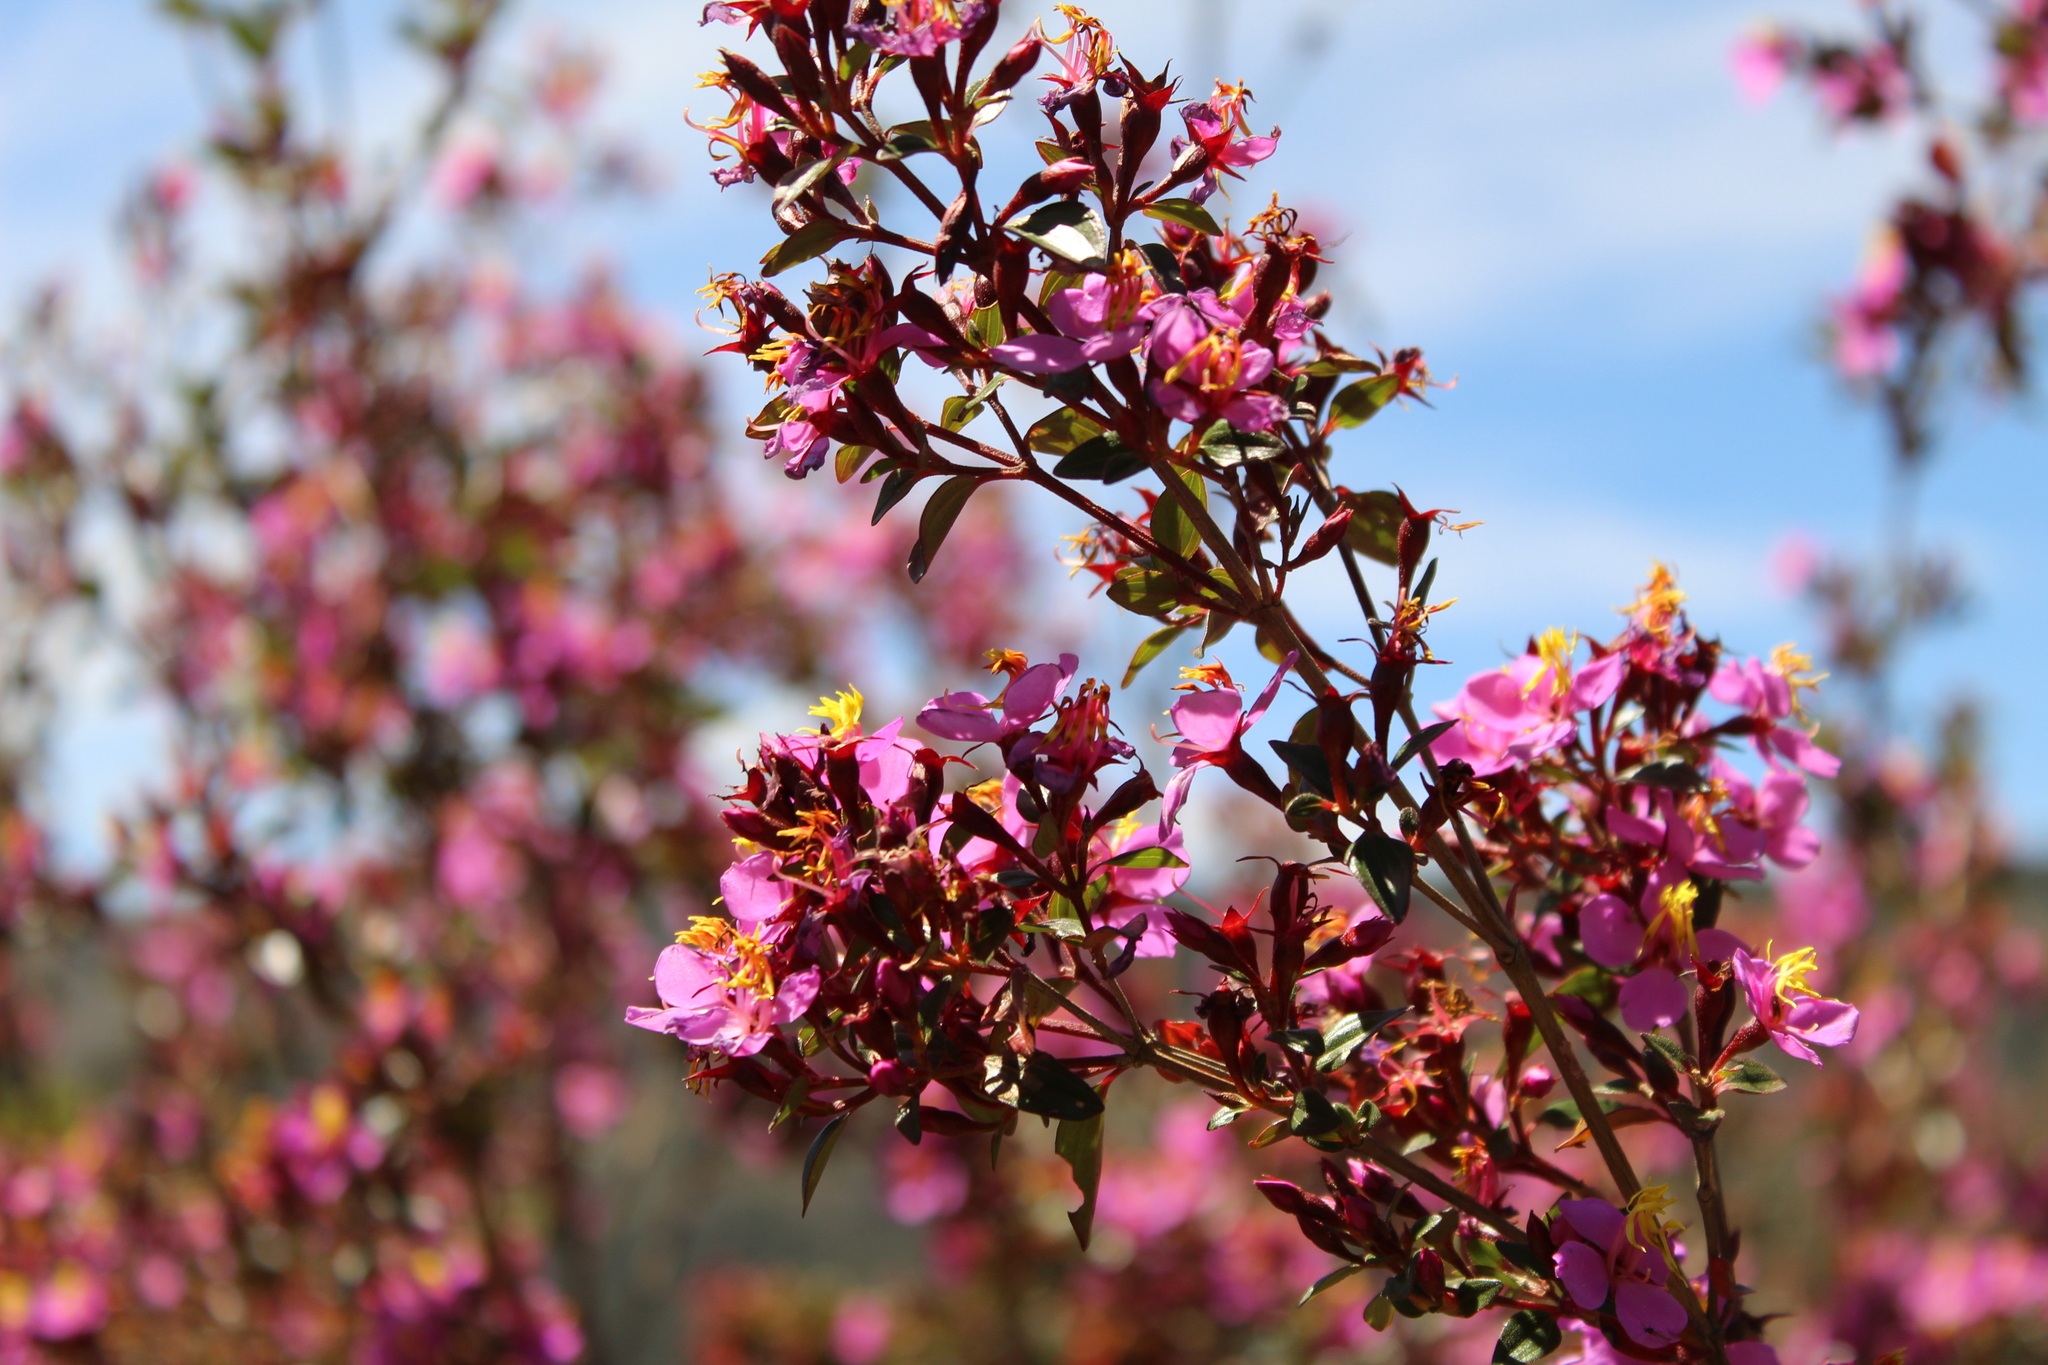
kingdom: Plantae
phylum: Tracheophyta
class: Magnoliopsida
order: Myrtales
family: Melastomataceae
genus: Monochaetum
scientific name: Monochaetum myrtoideum
